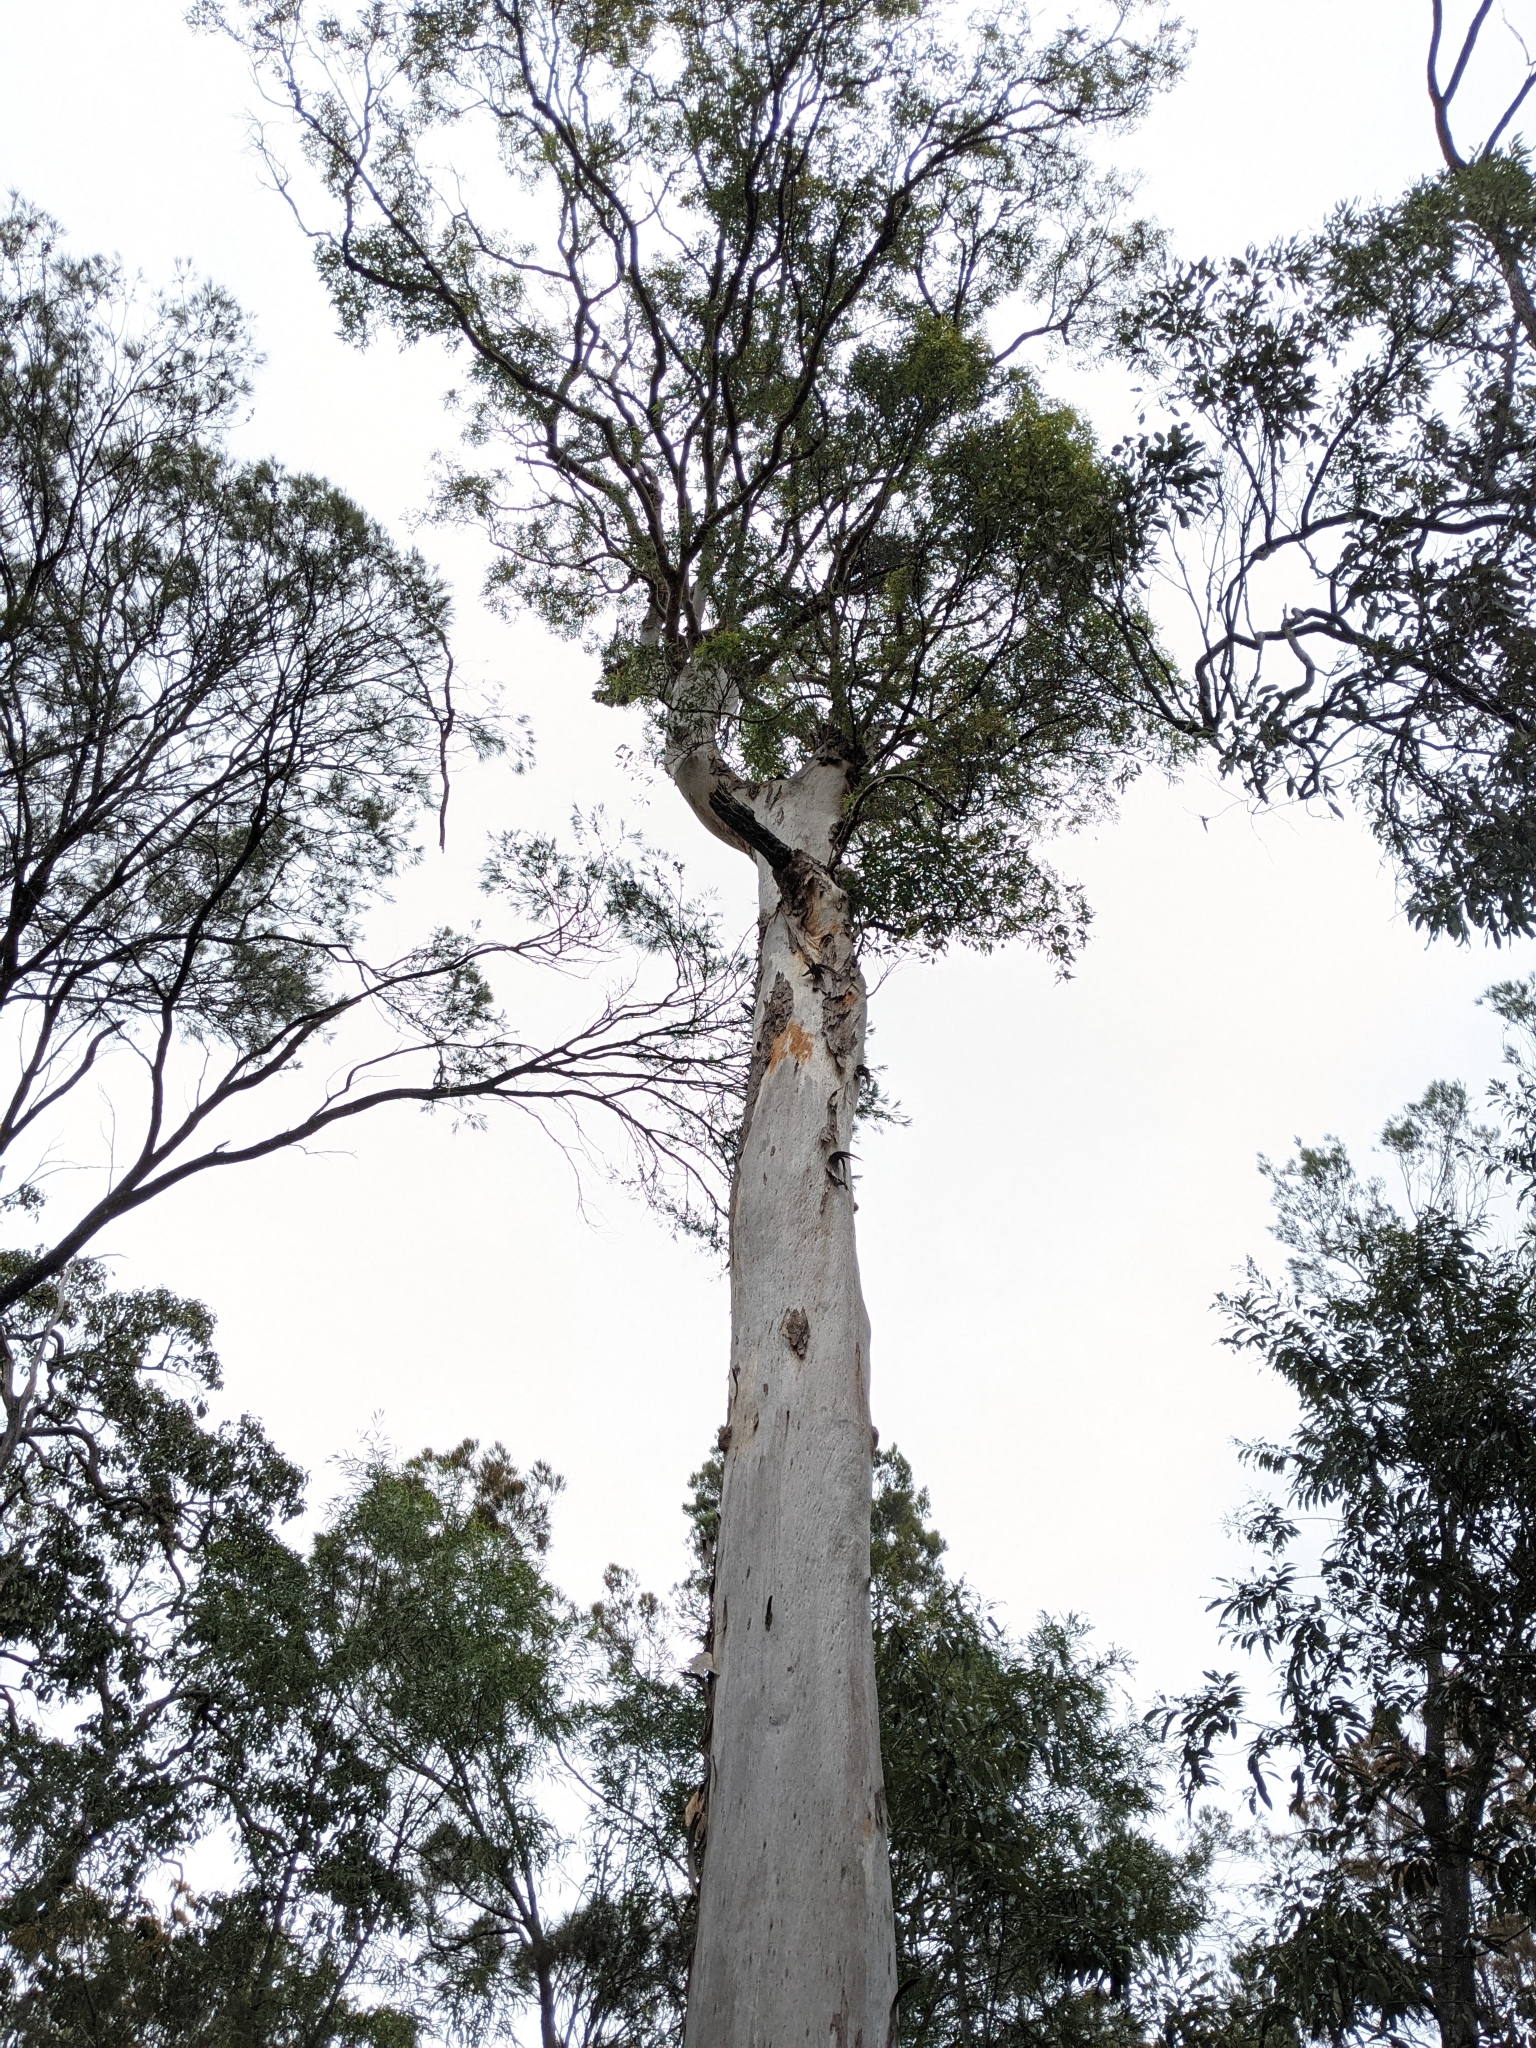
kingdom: Plantae
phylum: Tracheophyta
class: Magnoliopsida
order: Myrtales
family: Myrtaceae
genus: Angophora
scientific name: Angophora leiocarpa
